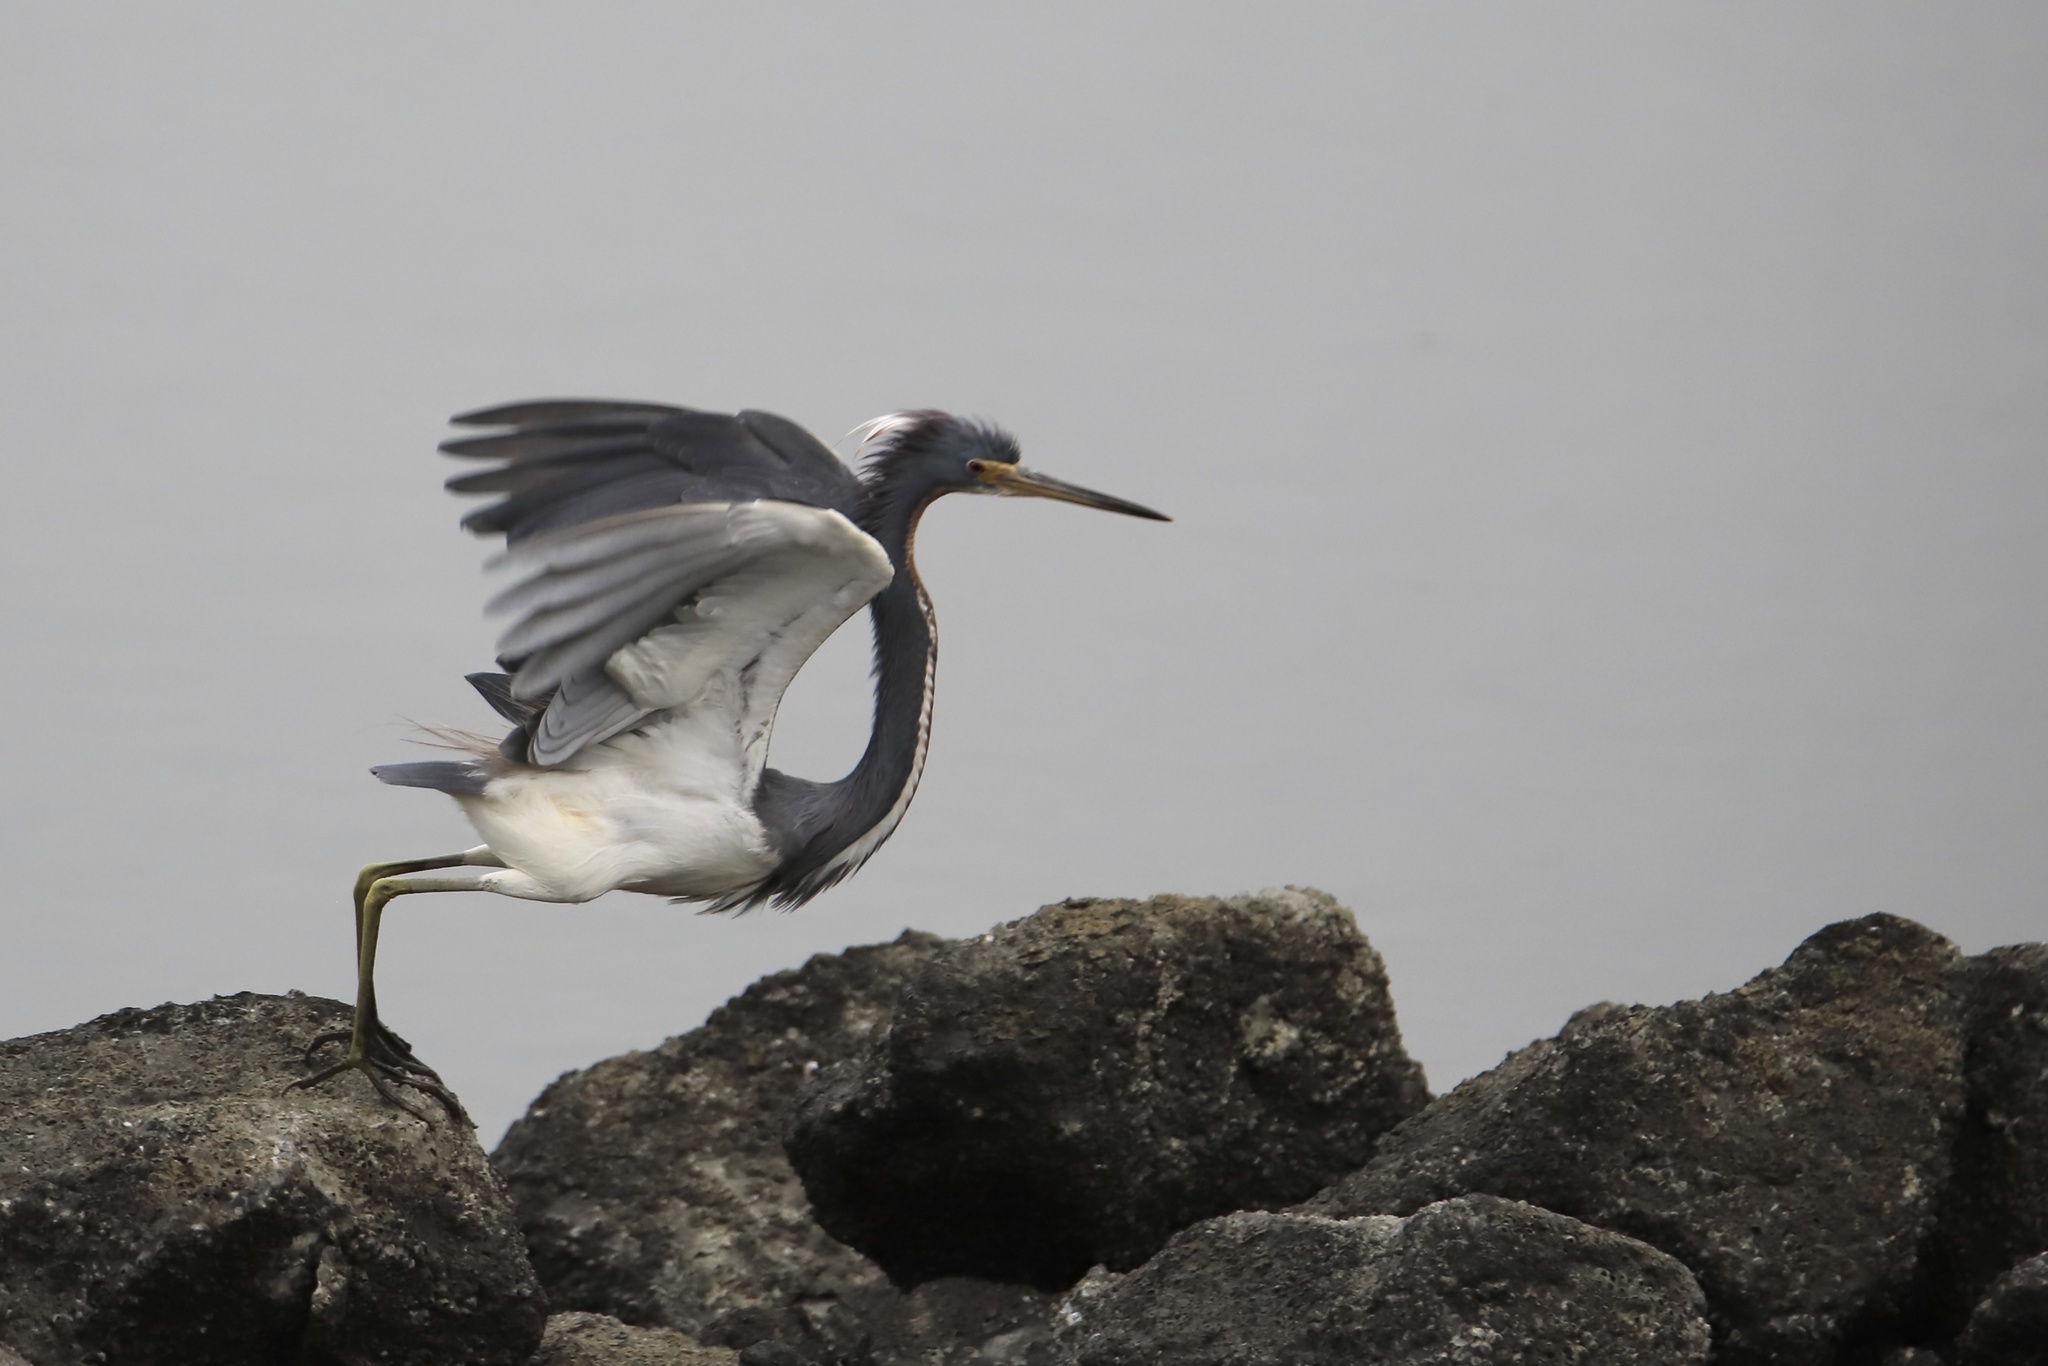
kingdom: Animalia
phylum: Chordata
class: Aves
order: Pelecaniformes
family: Ardeidae
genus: Egretta
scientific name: Egretta tricolor
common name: Tricolored heron
